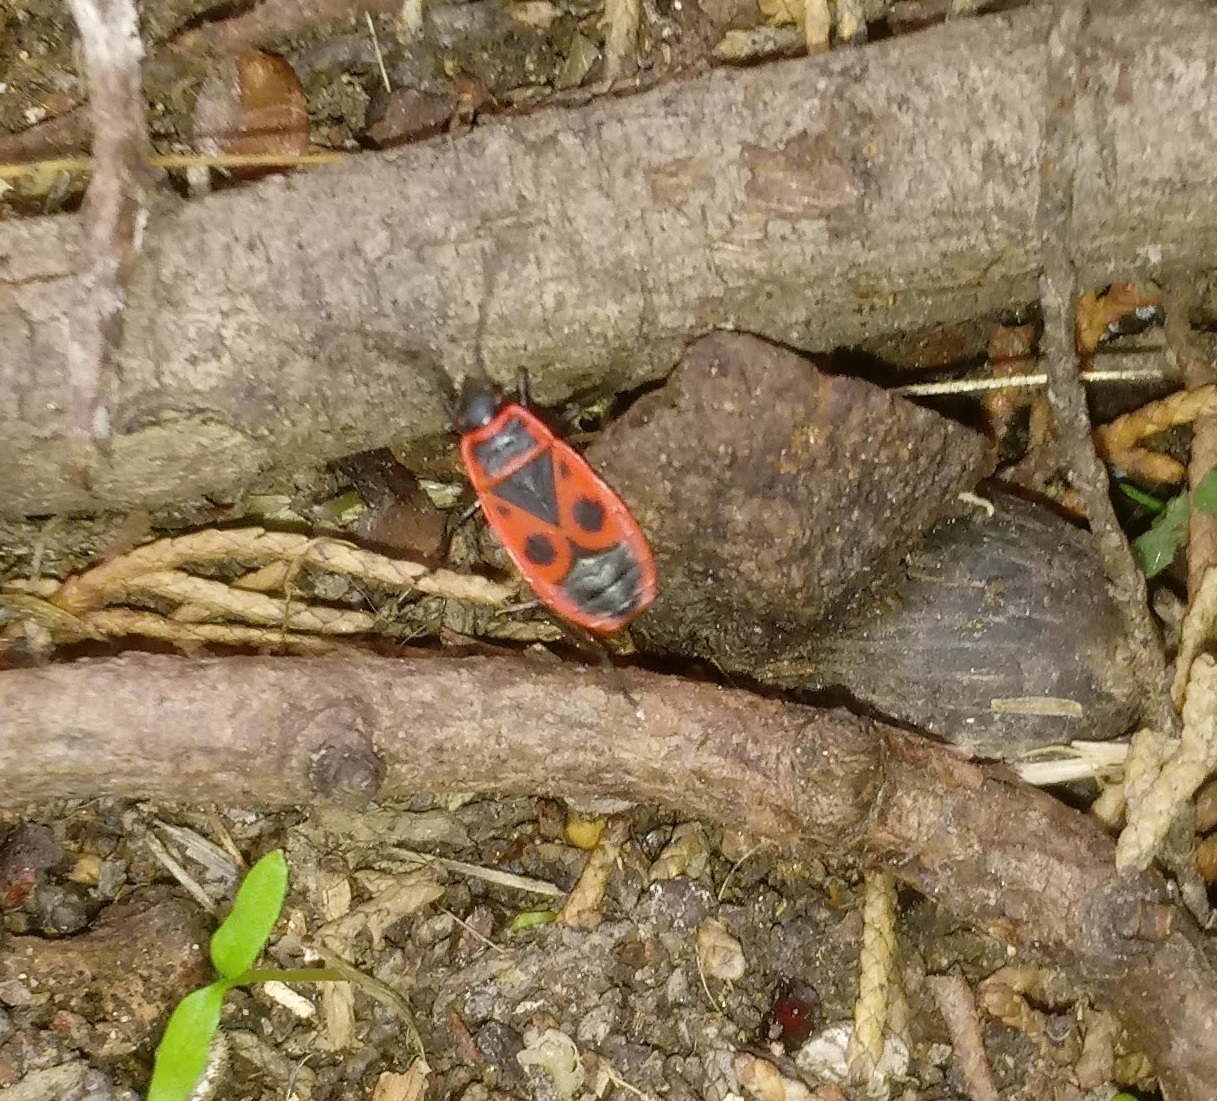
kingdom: Animalia
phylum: Arthropoda
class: Insecta
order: Hemiptera
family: Pyrrhocoridae
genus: Pyrrhocoris
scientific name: Pyrrhocoris apterus
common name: Firebug
